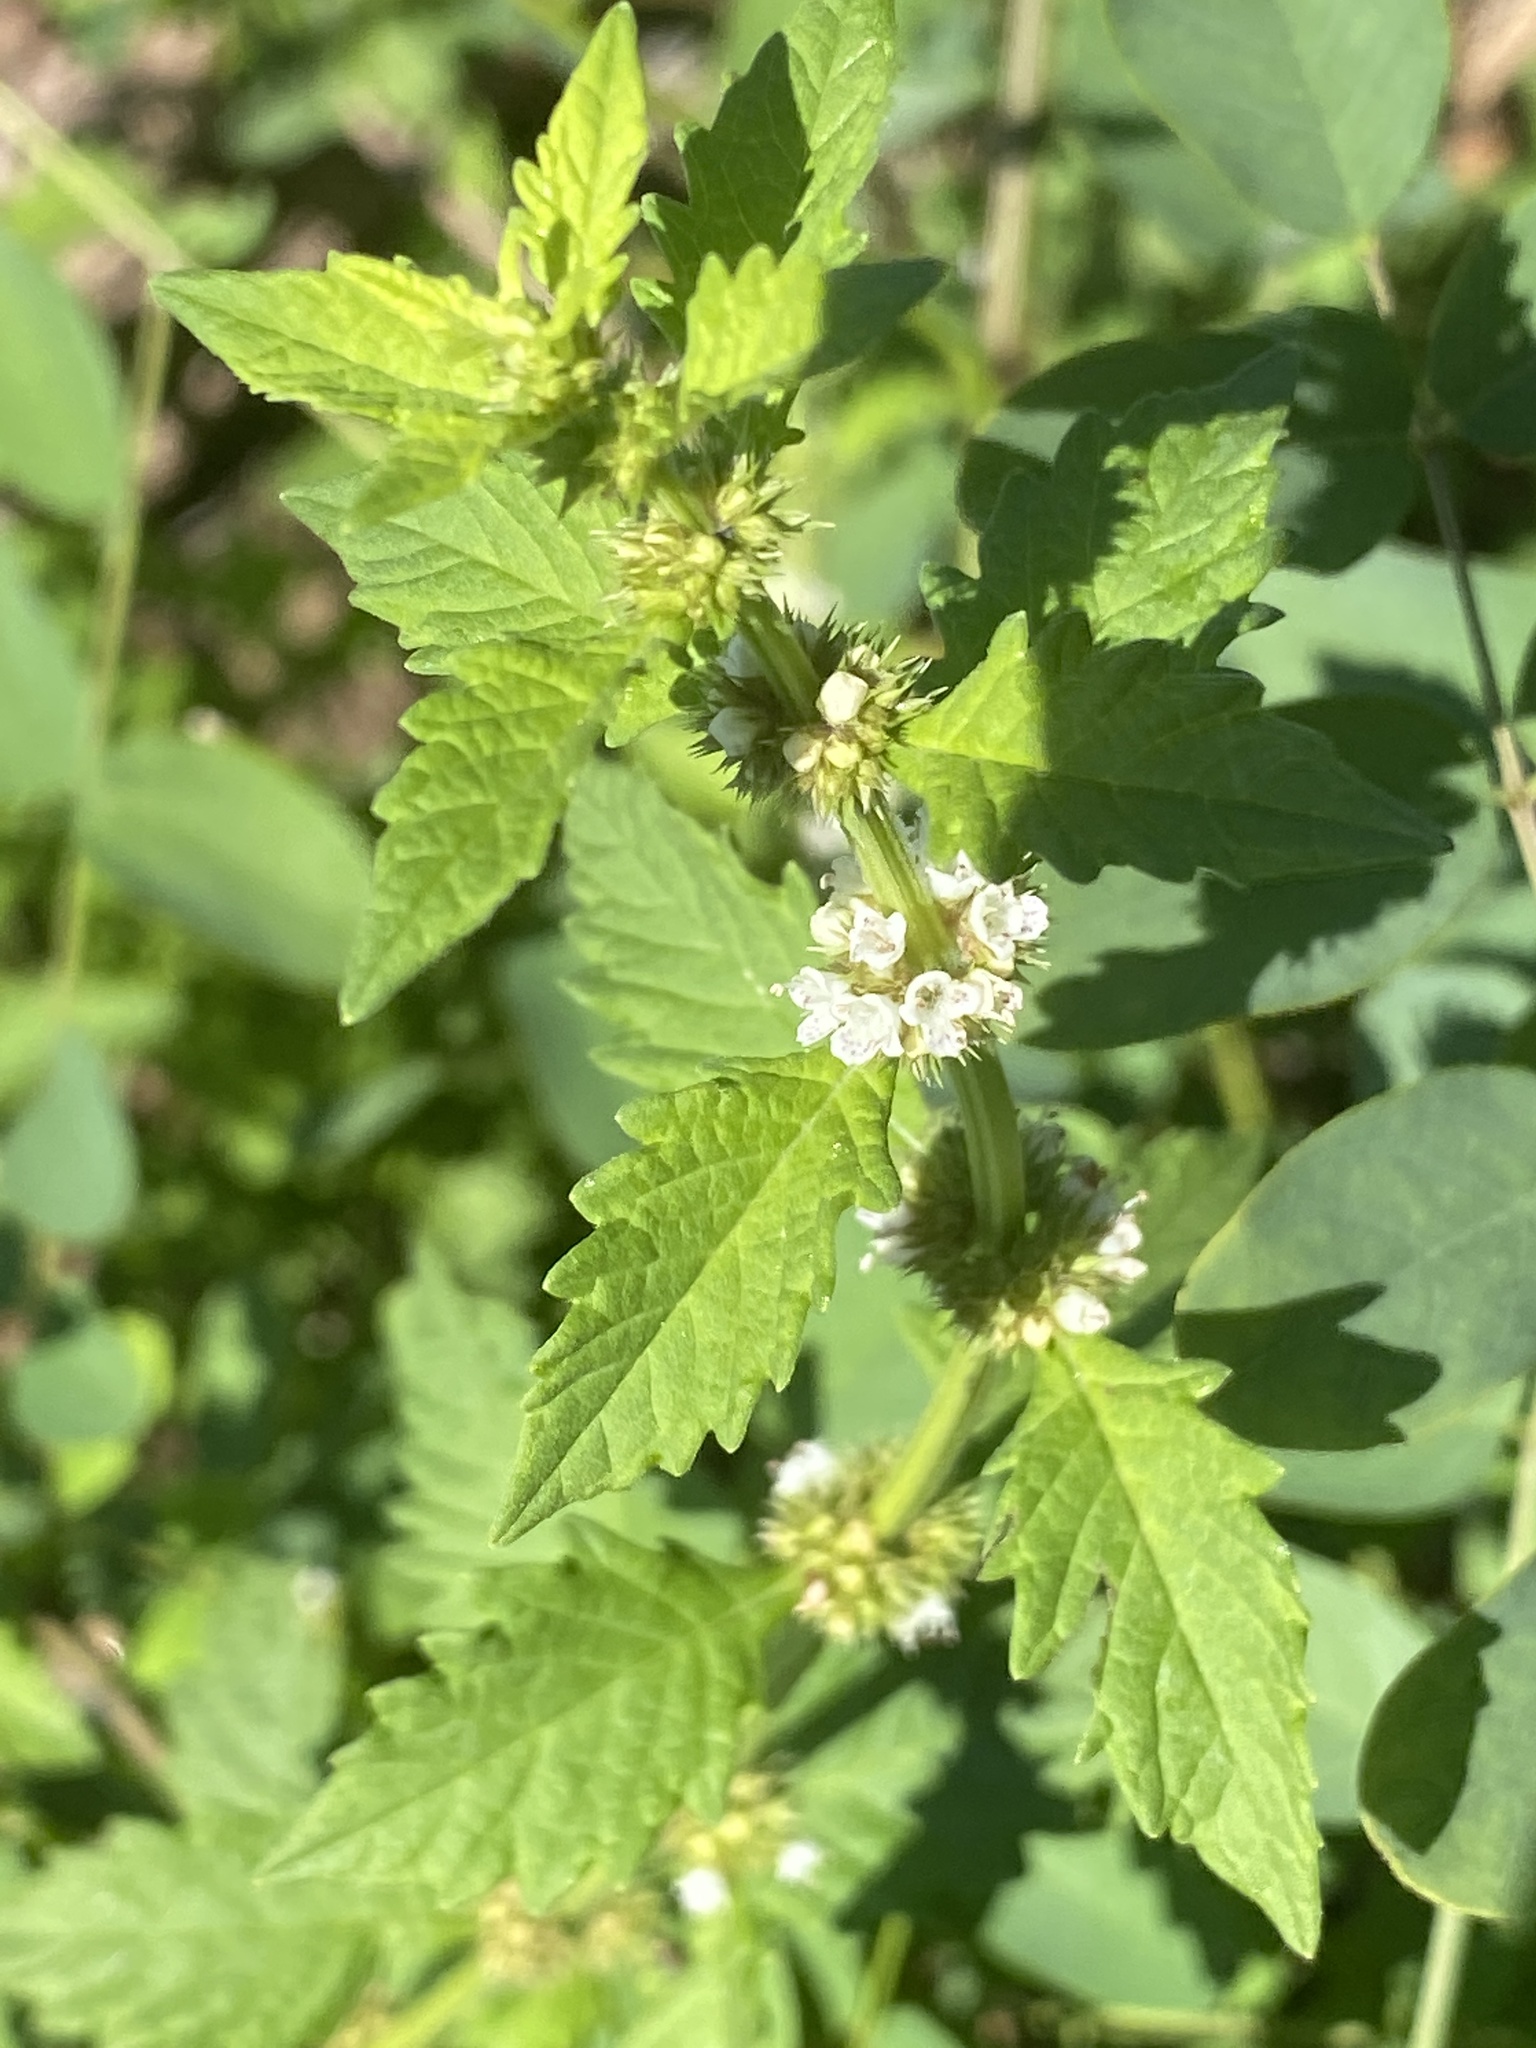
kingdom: Plantae
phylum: Tracheophyta
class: Magnoliopsida
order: Lamiales
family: Lamiaceae
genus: Lycopus
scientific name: Lycopus europaeus
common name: European bugleweed
